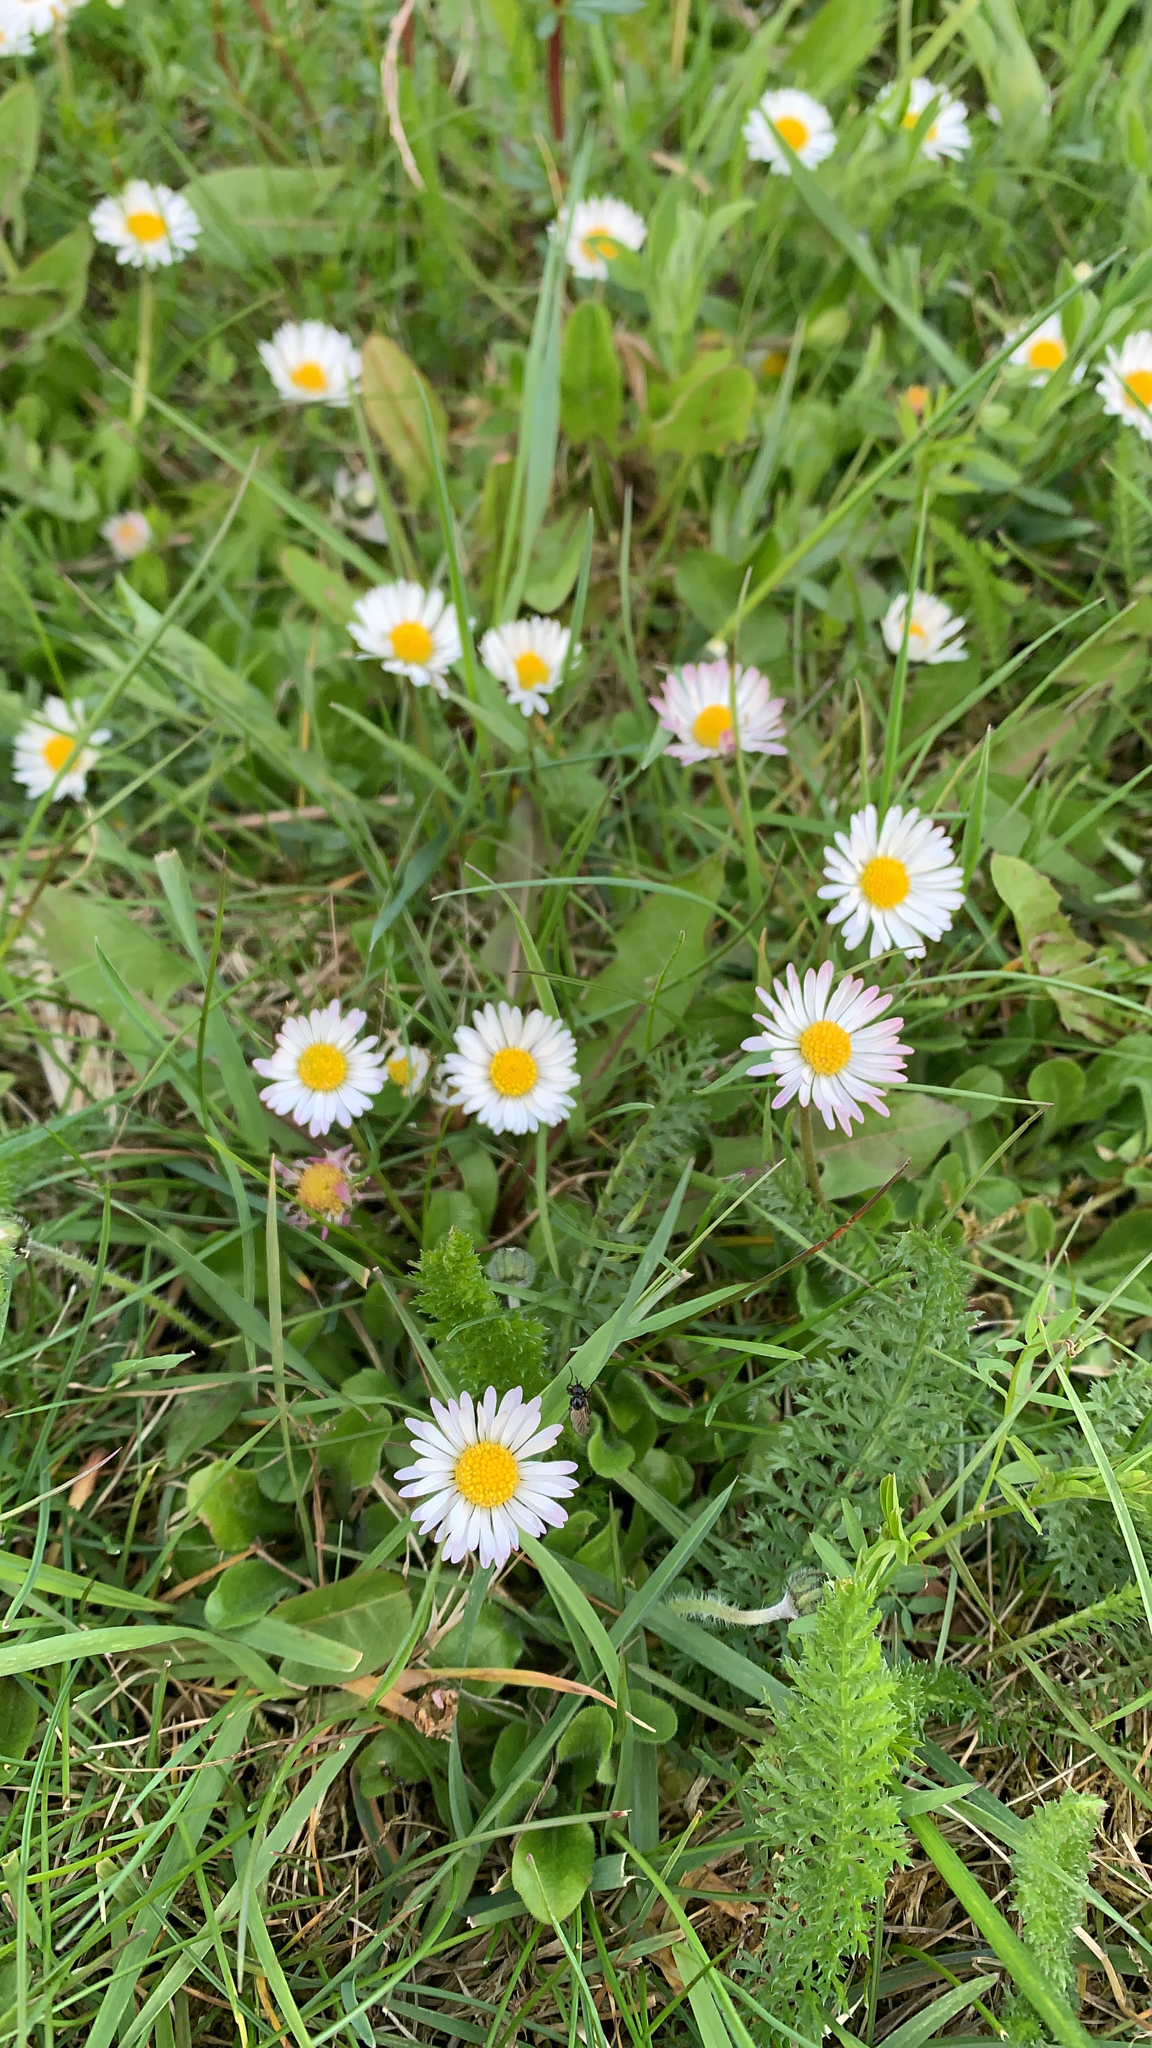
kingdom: Plantae
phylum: Tracheophyta
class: Magnoliopsida
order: Asterales
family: Asteraceae
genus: Bellis
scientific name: Bellis perennis
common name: Lawndaisy
